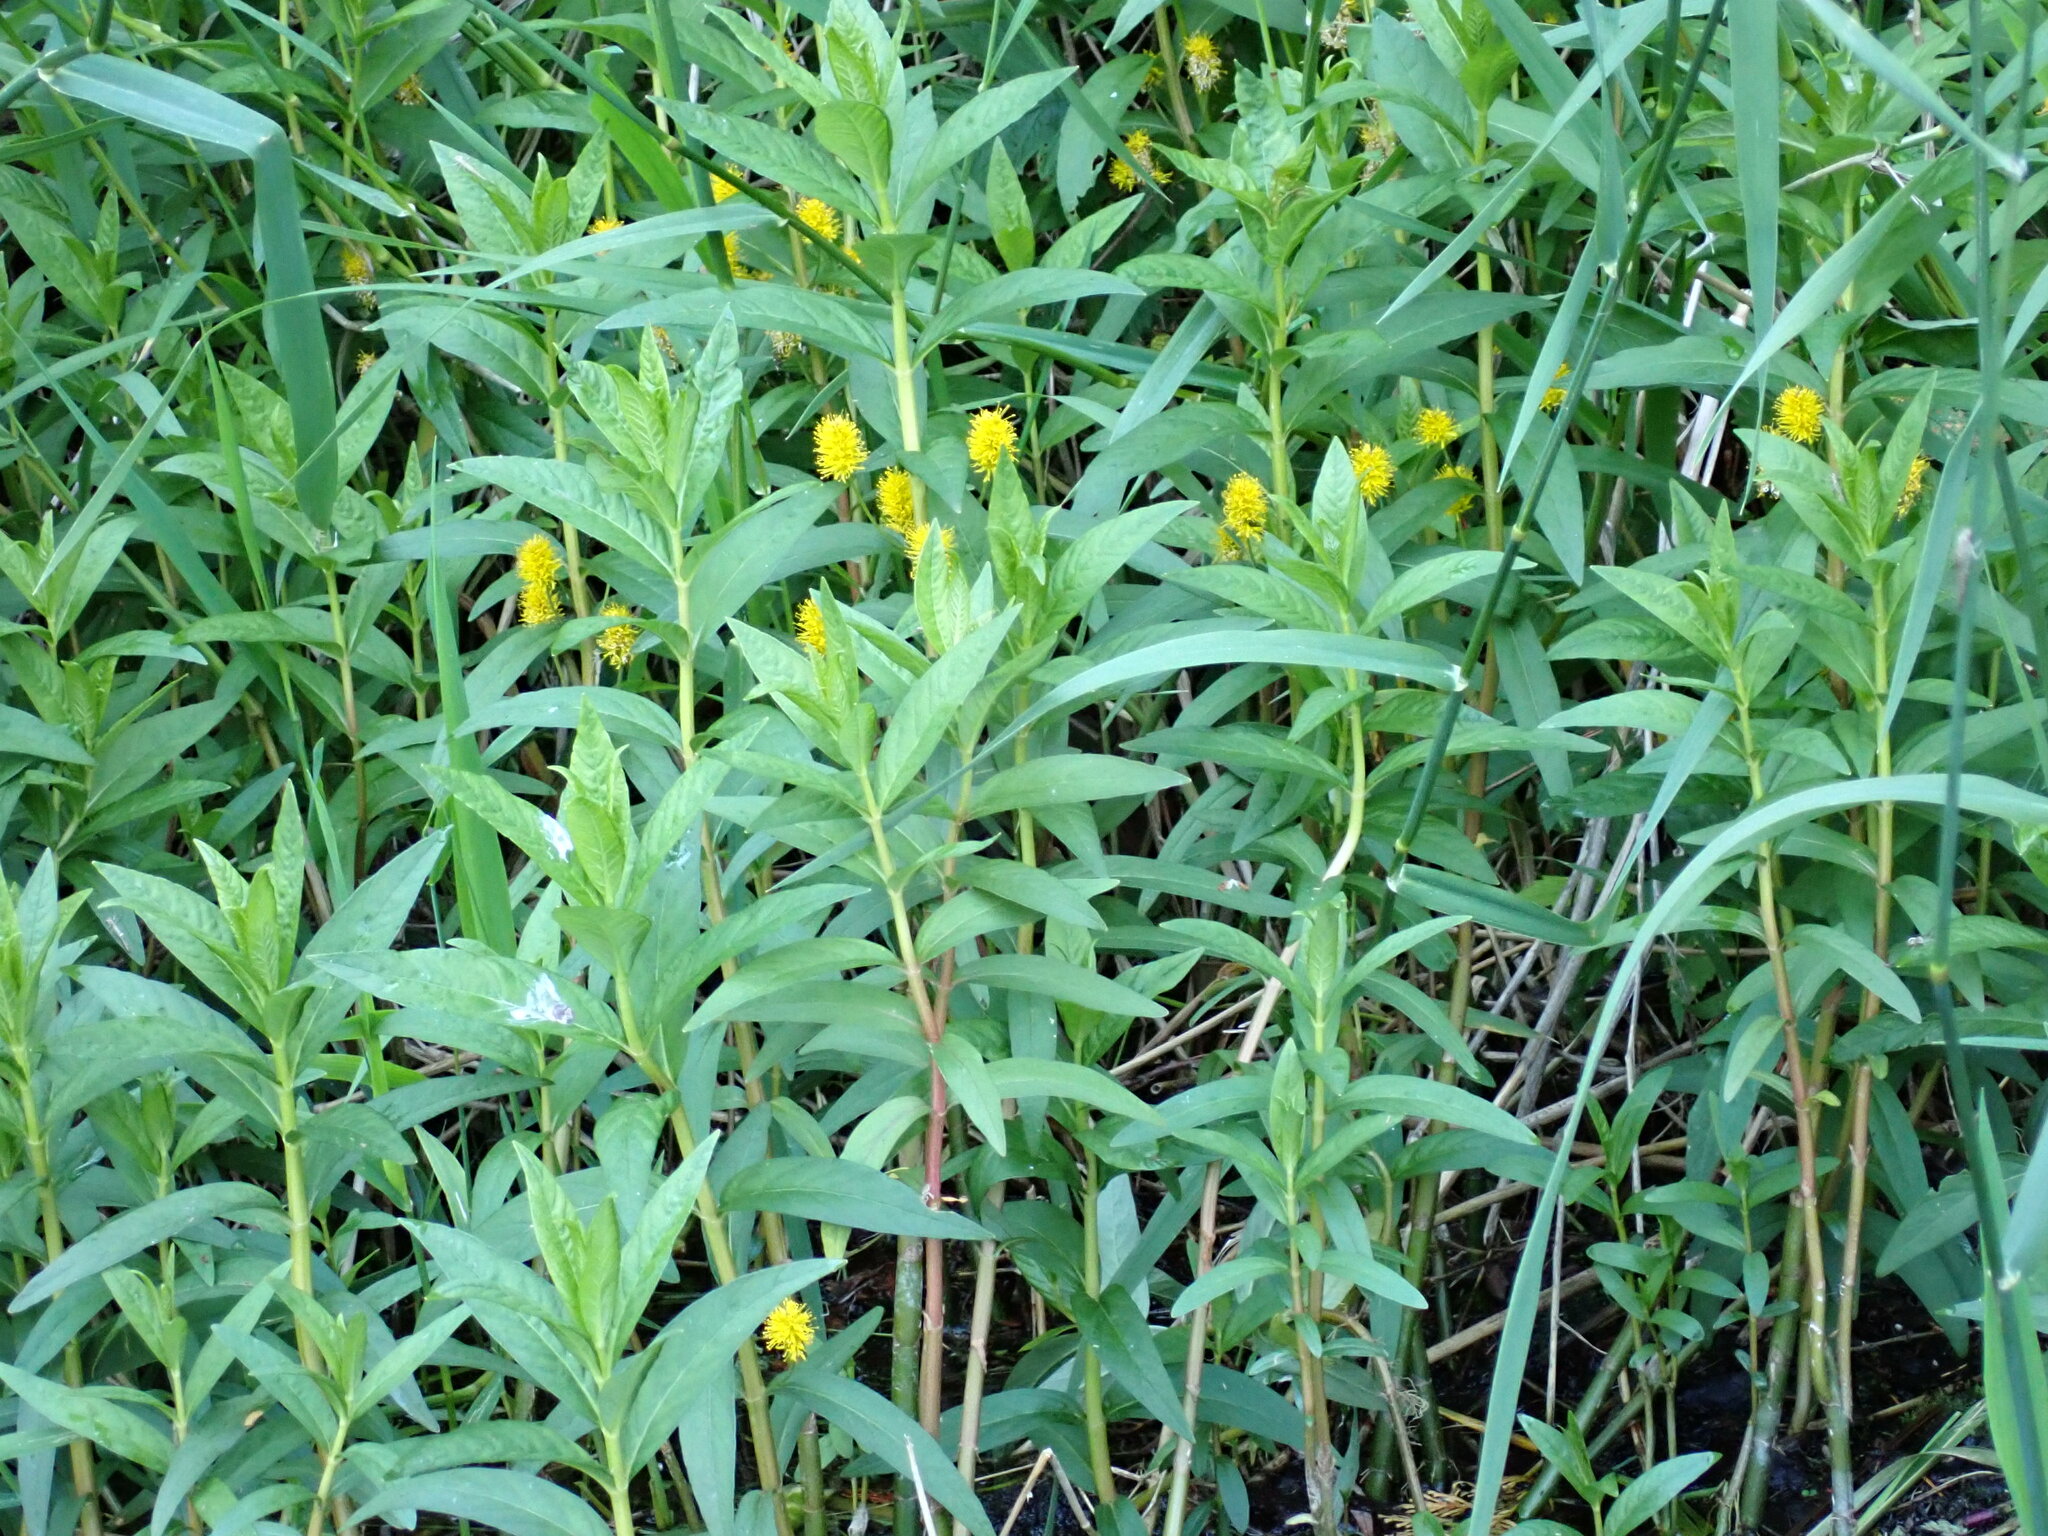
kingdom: Plantae
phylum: Tracheophyta
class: Magnoliopsida
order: Ericales
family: Primulaceae
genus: Lysimachia
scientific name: Lysimachia thyrsiflora
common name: Tufted loosestrife
